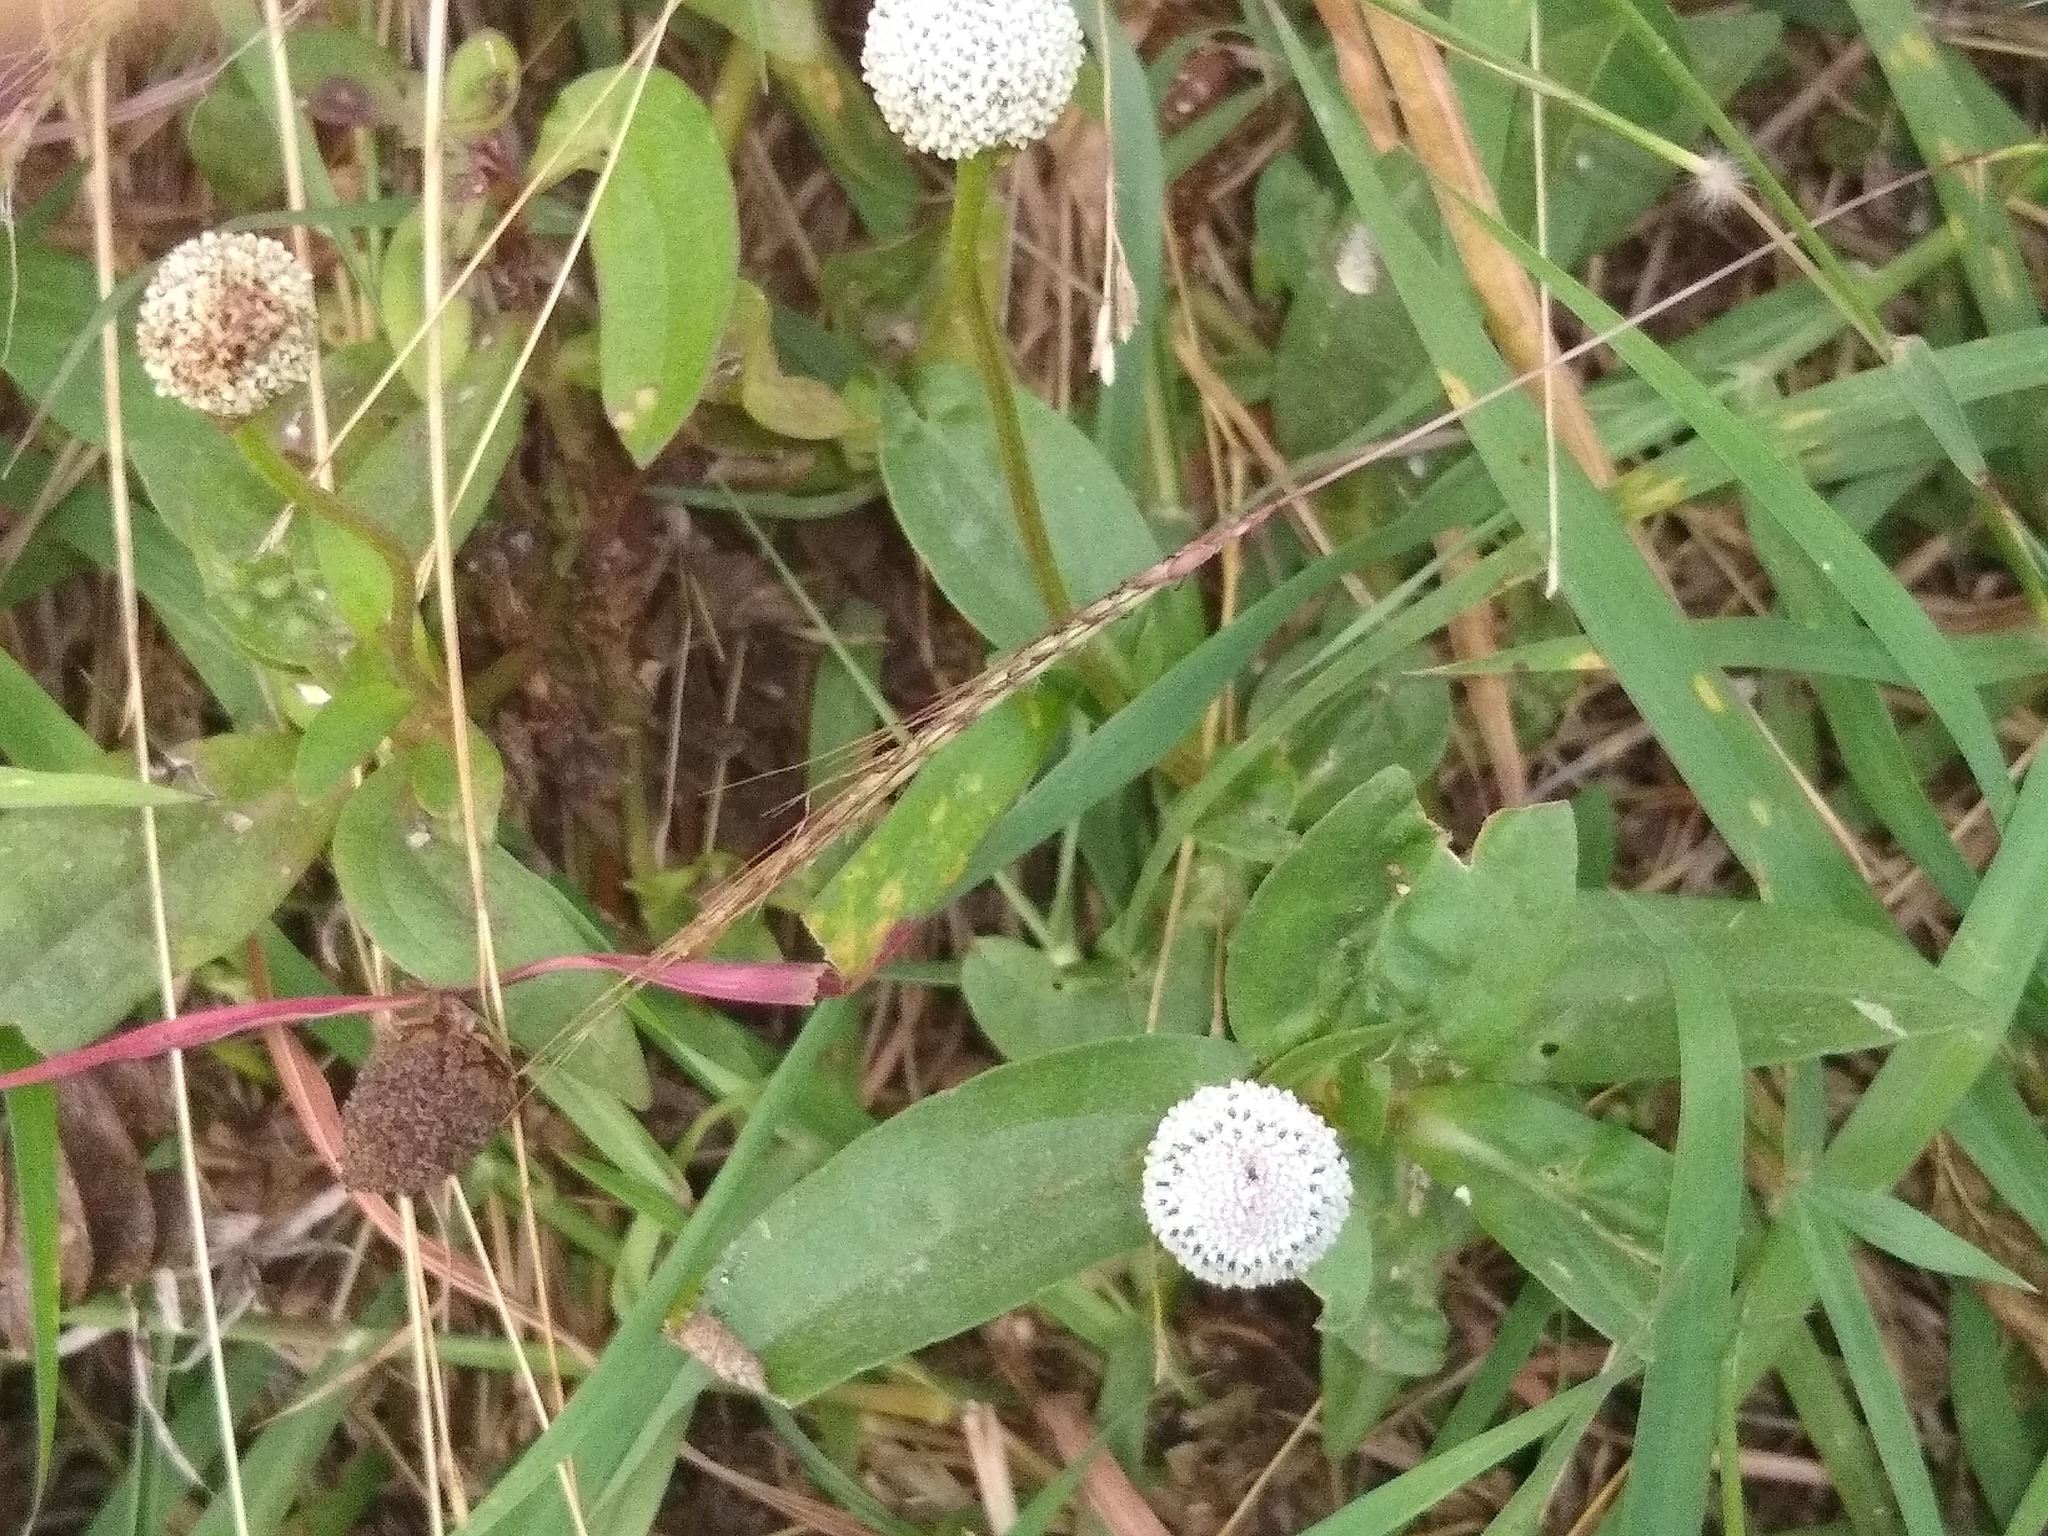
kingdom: Plantae
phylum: Tracheophyta
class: Magnoliopsida
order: Asterales
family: Asteraceae
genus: Spilanthes
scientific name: Spilanthes urens
